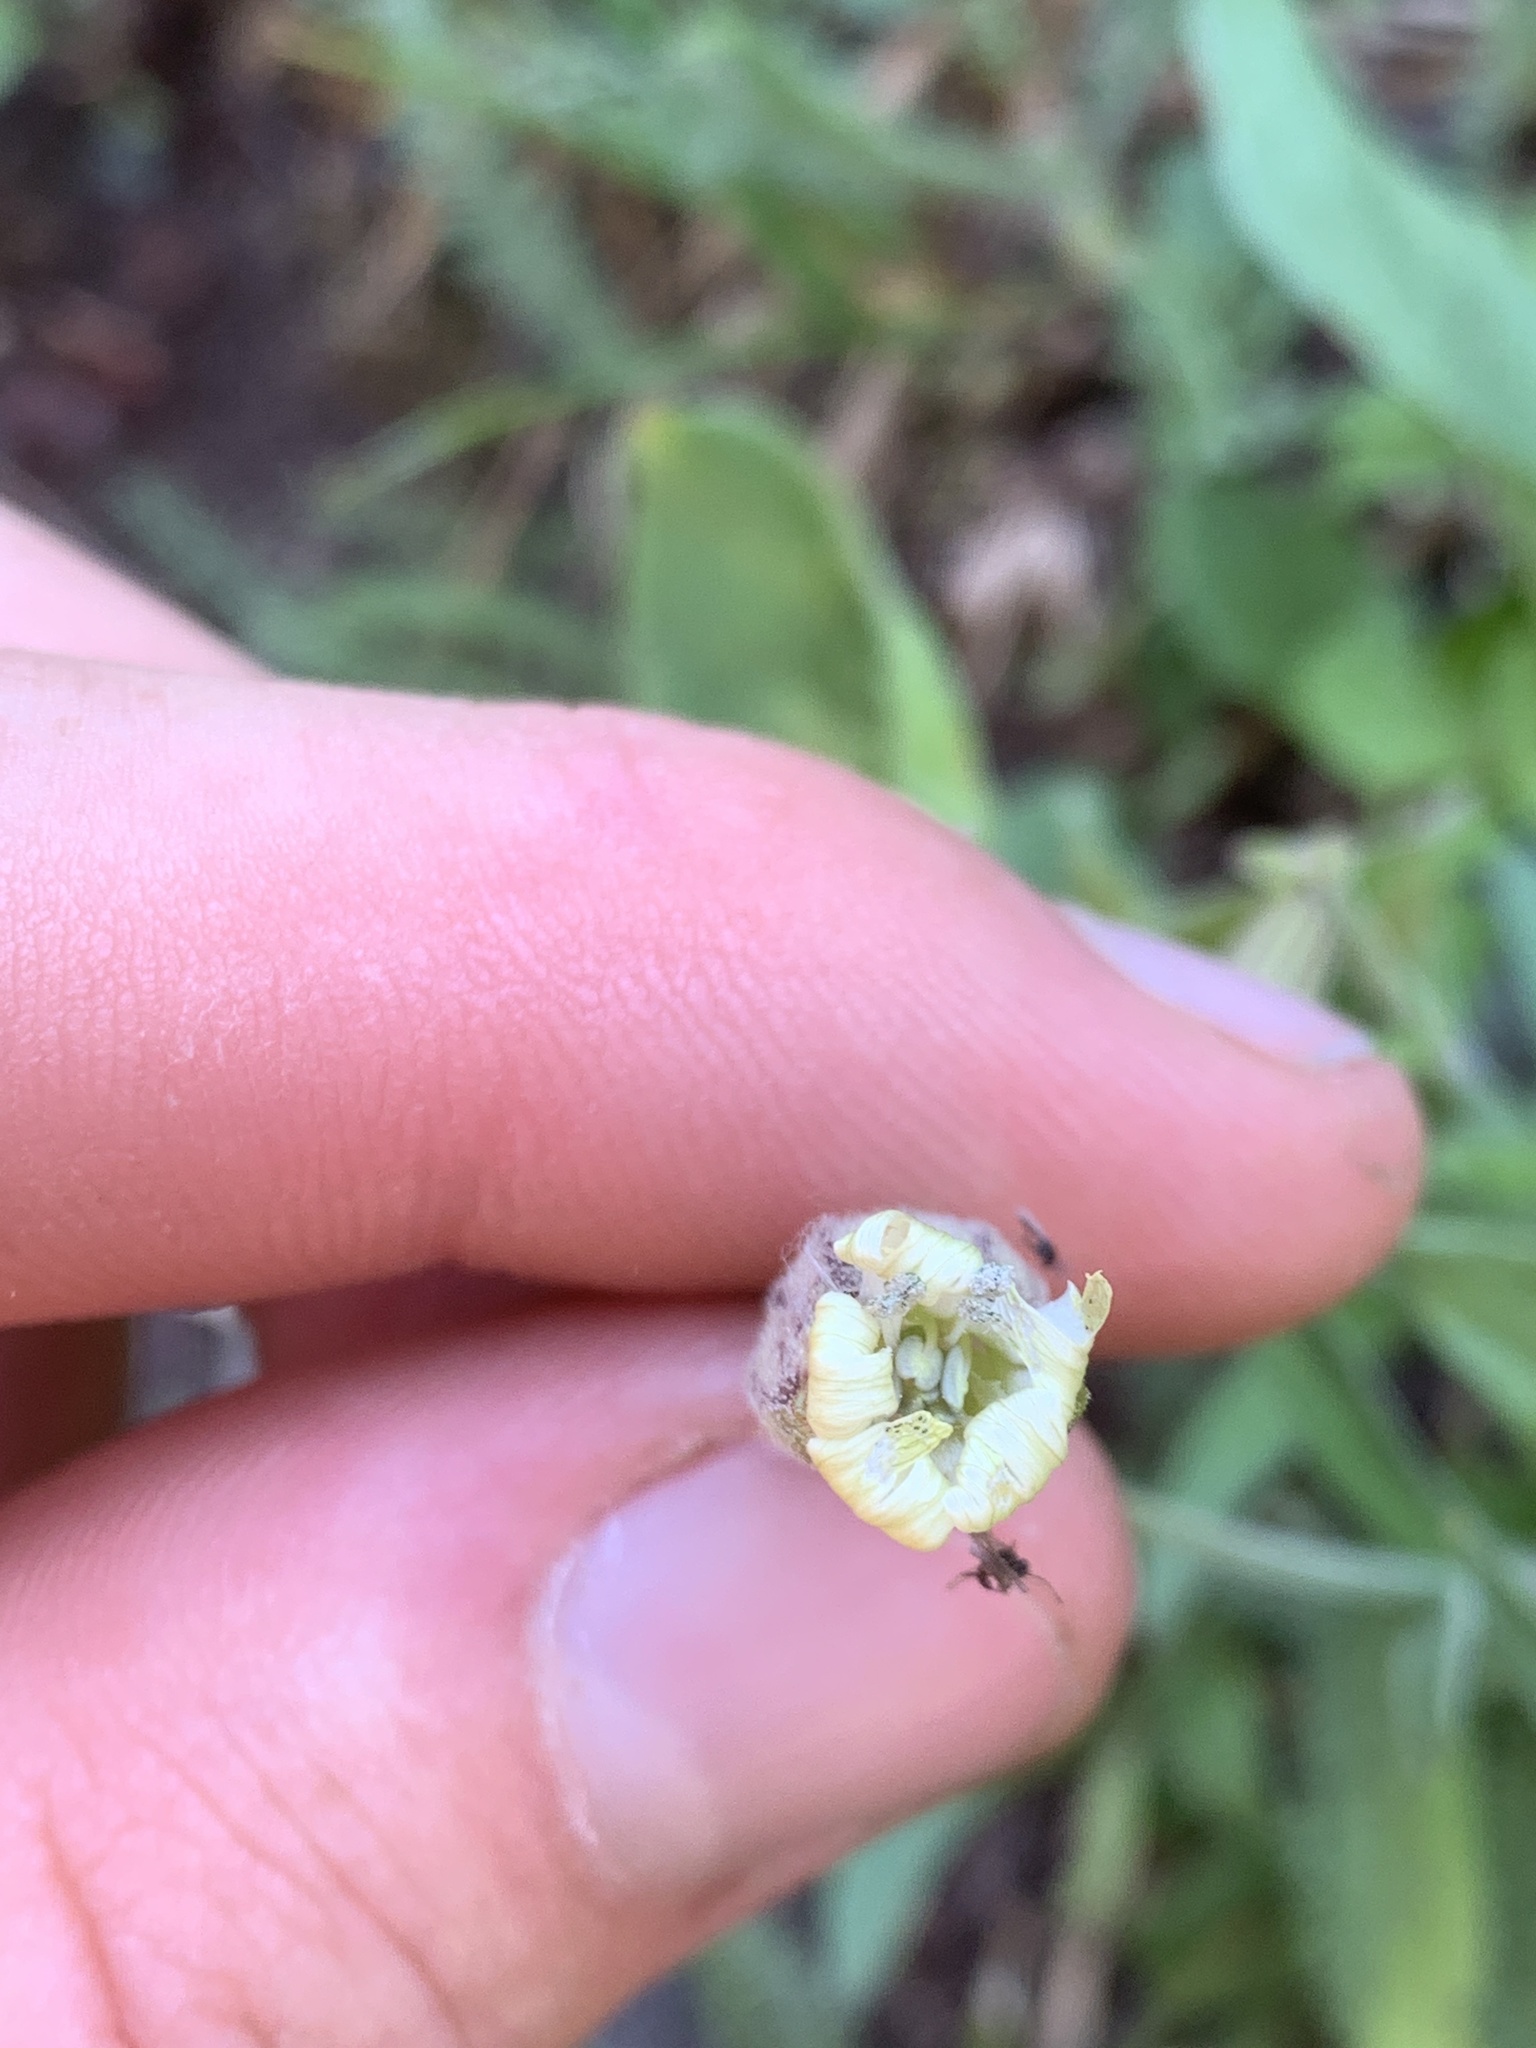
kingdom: Plantae
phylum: Tracheophyta
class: Magnoliopsida
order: Caryophyllales
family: Caryophyllaceae
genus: Silene
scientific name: Silene parryi
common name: Parry's campion
